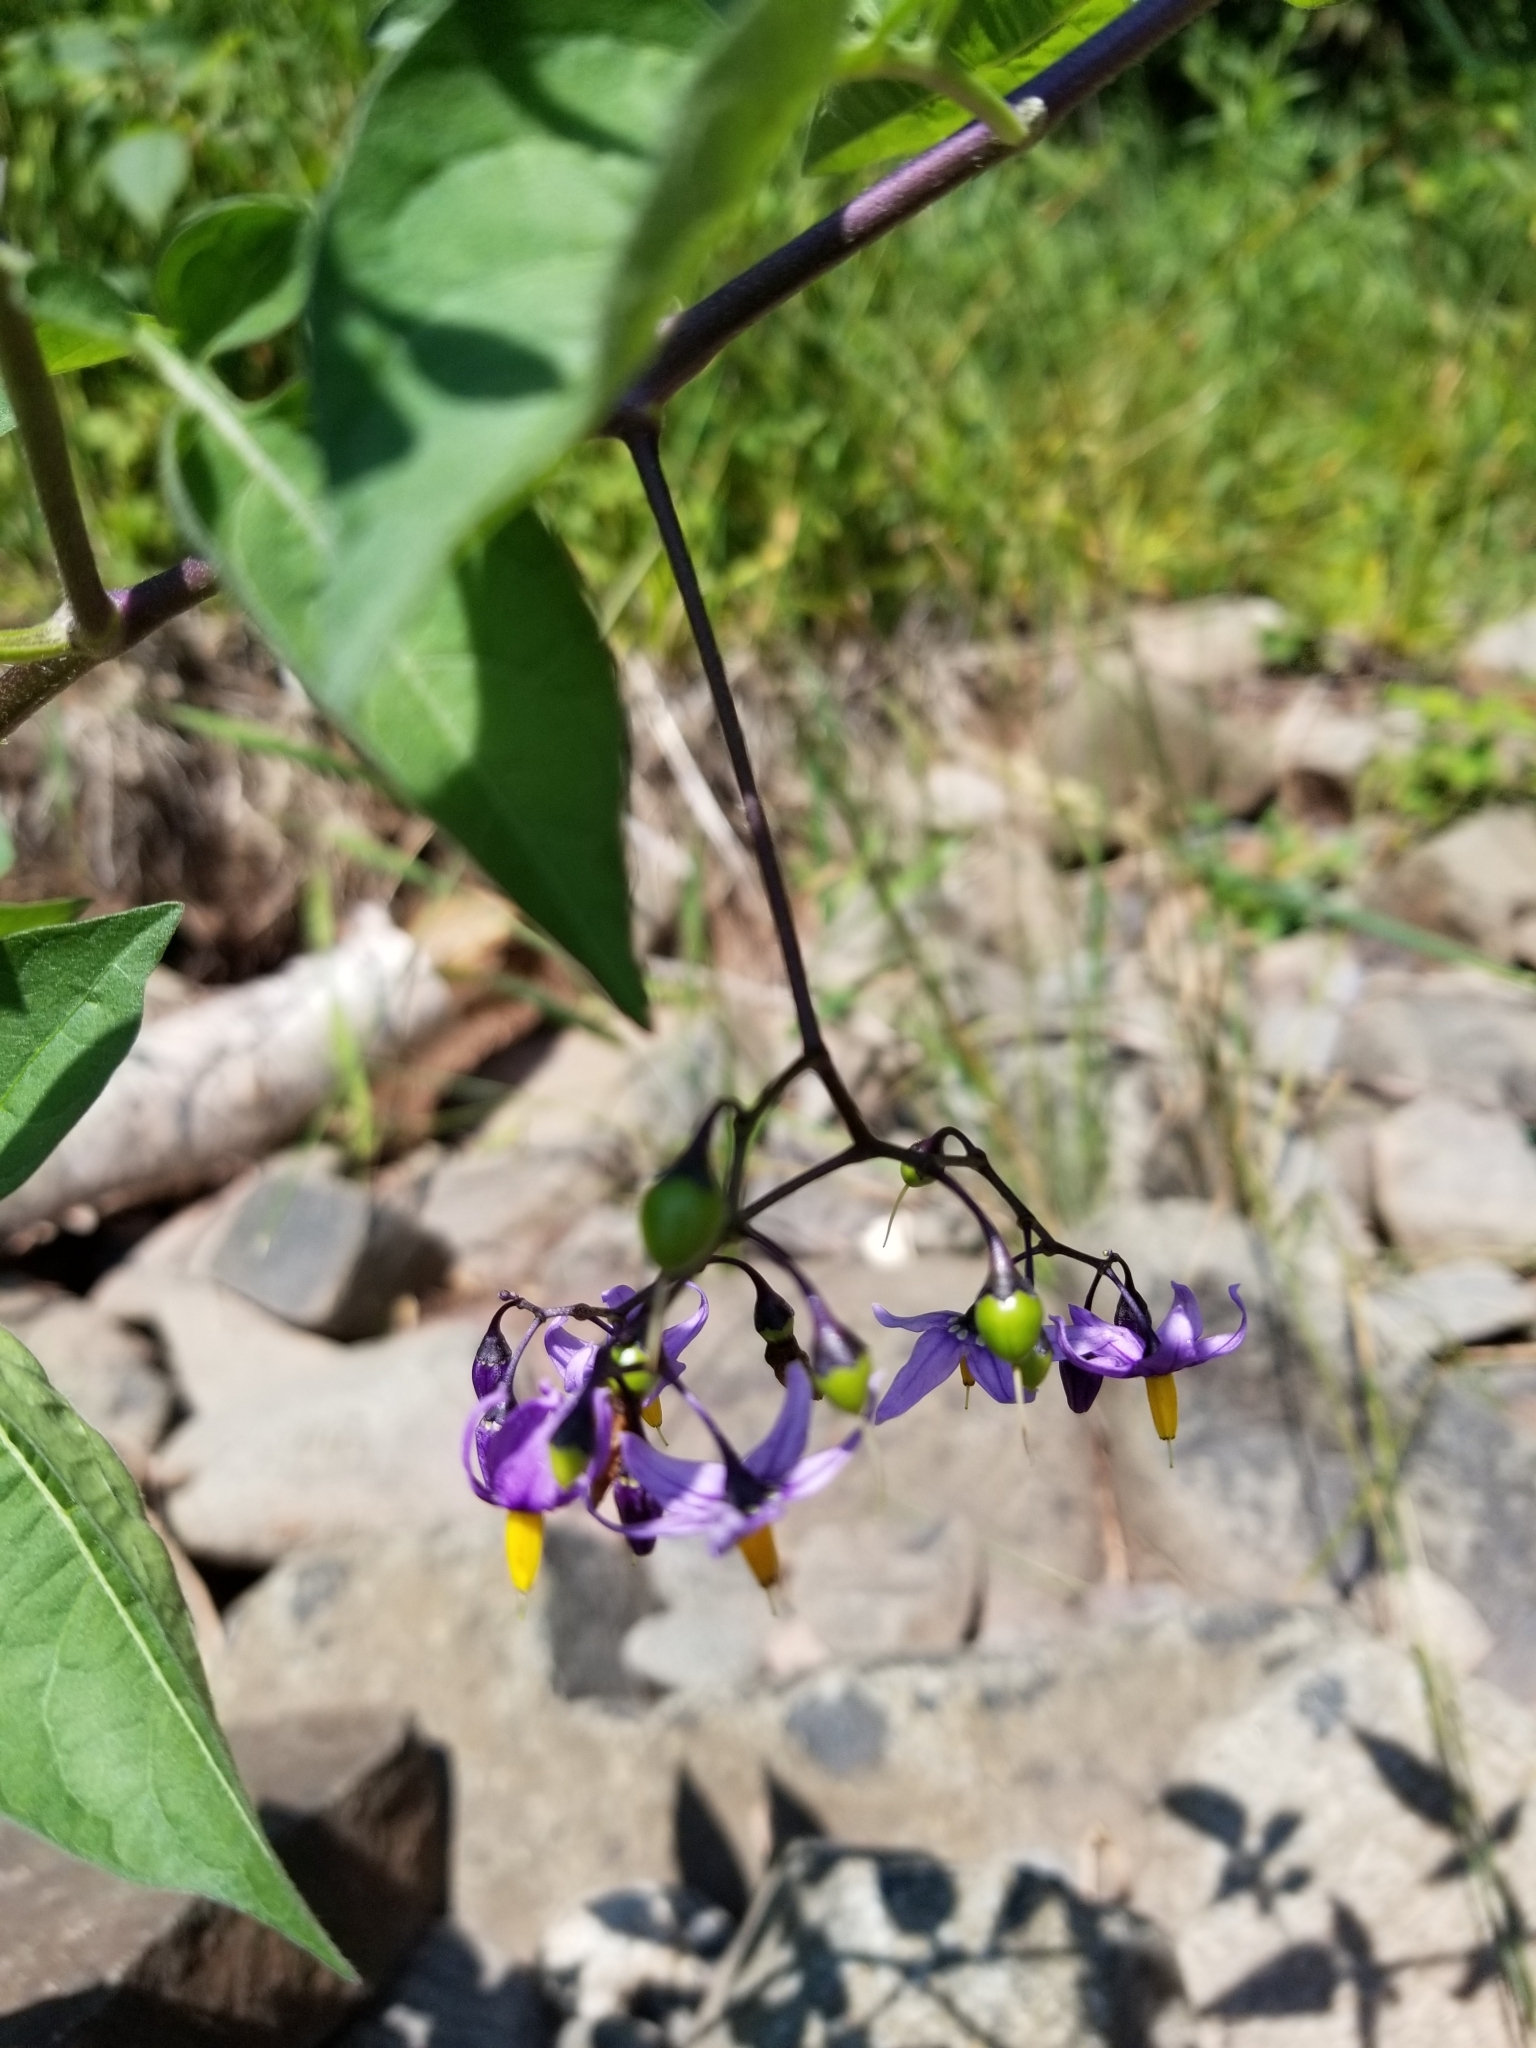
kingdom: Plantae
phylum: Tracheophyta
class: Magnoliopsida
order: Solanales
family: Solanaceae
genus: Solanum
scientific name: Solanum dulcamara
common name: Climbing nightshade
